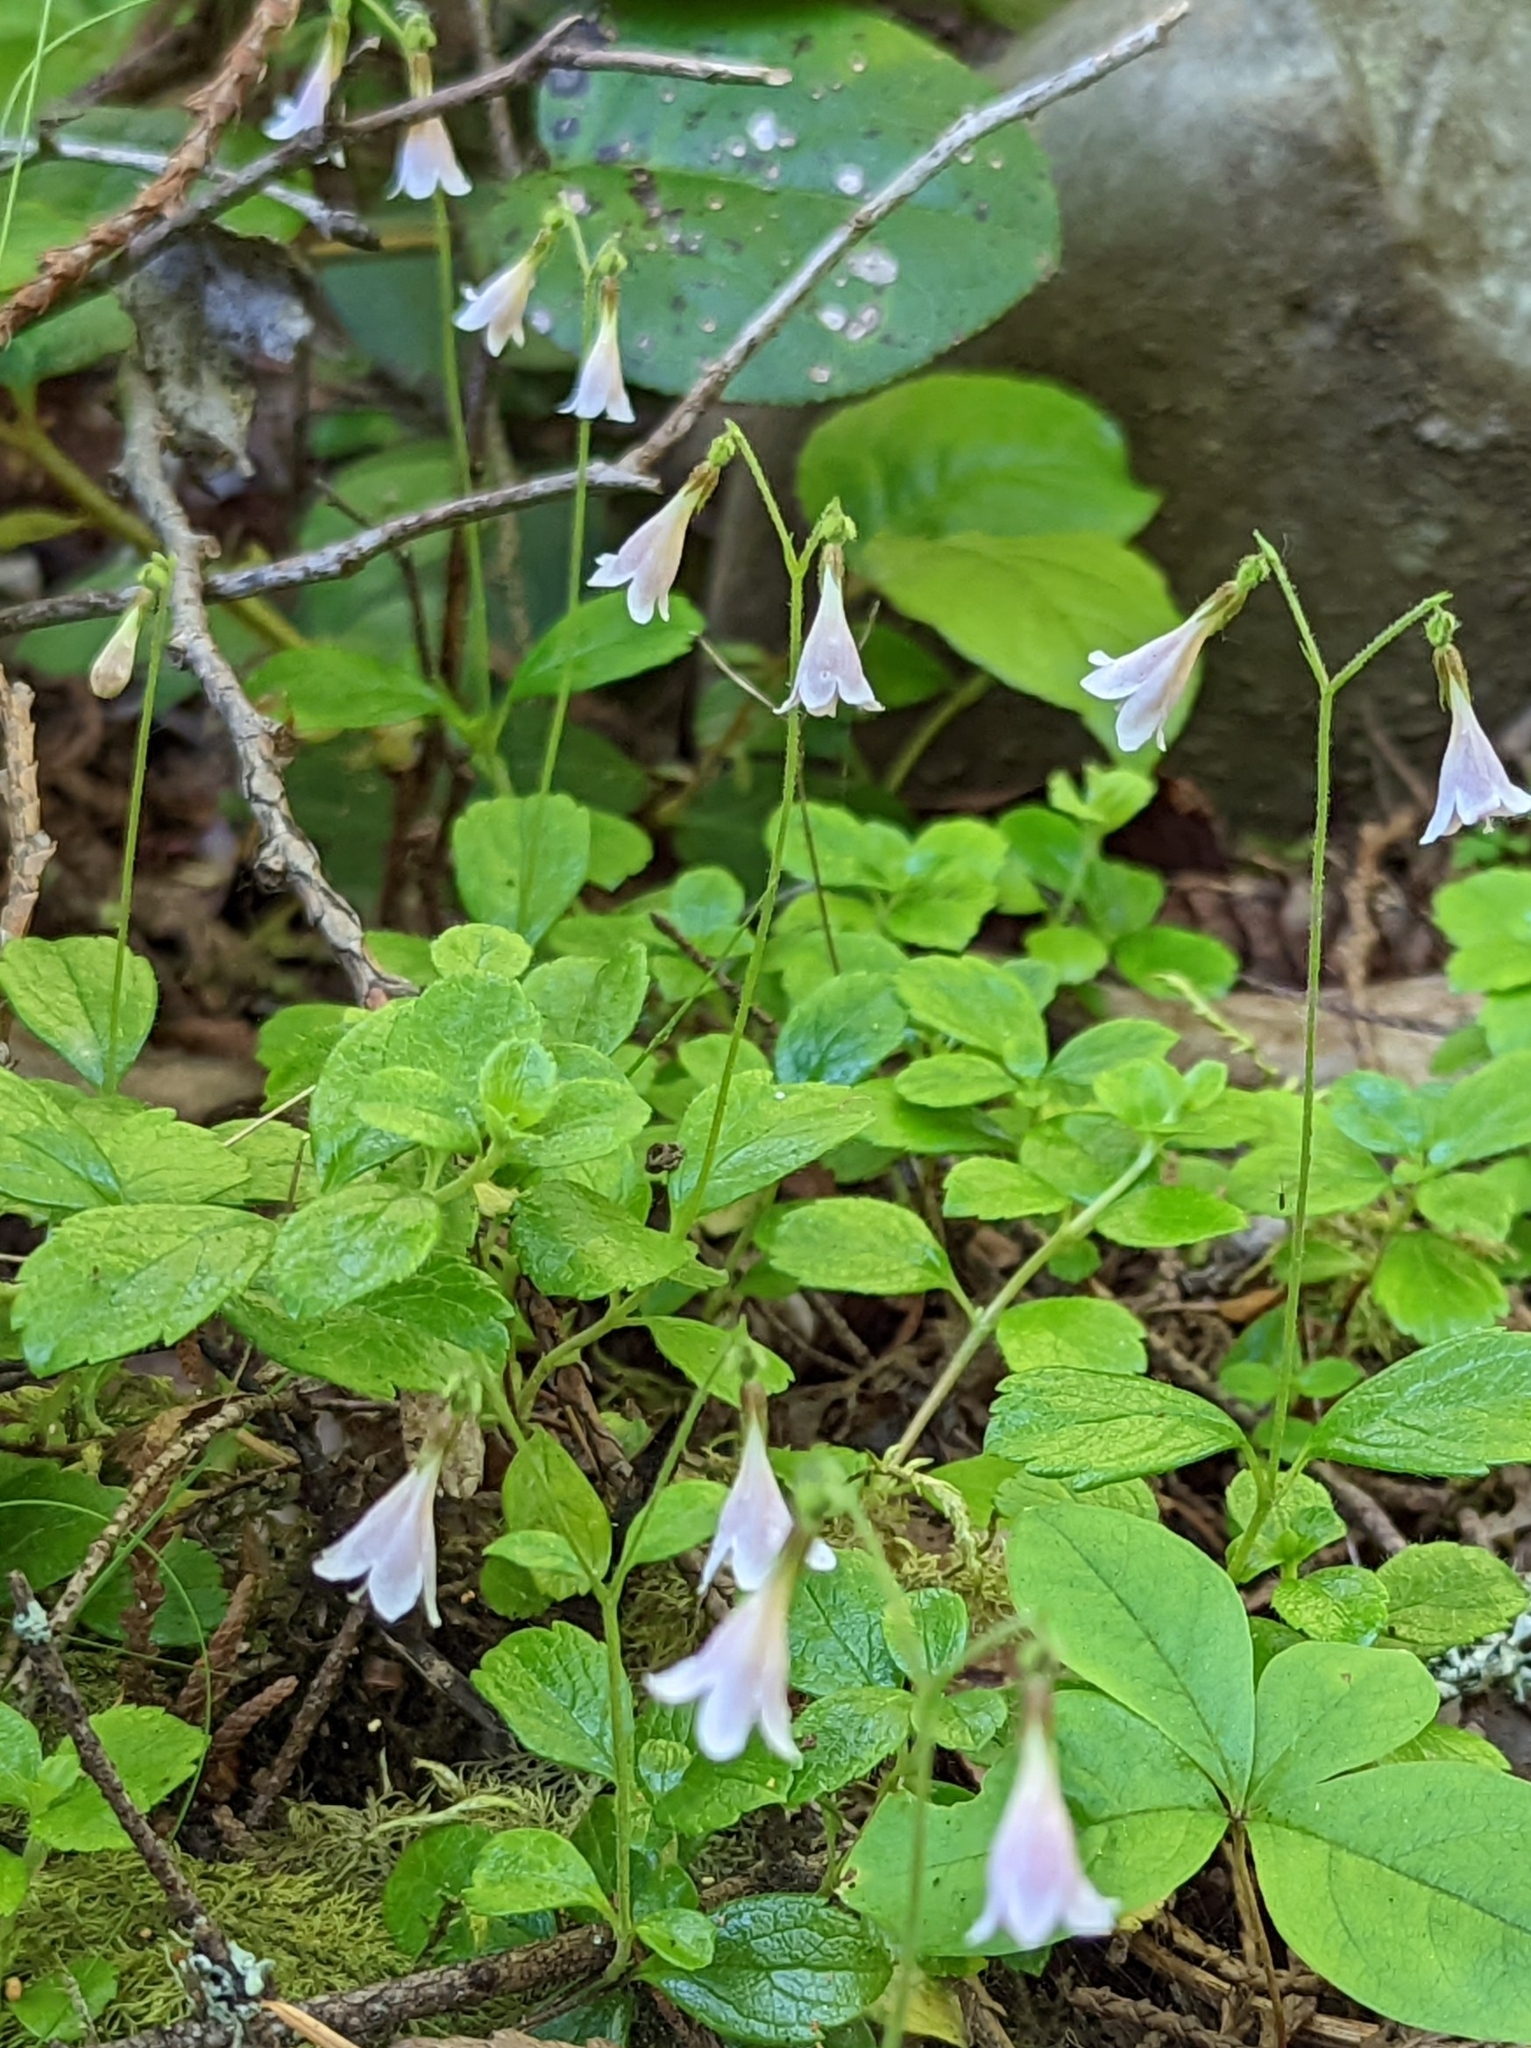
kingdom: Plantae
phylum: Tracheophyta
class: Magnoliopsida
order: Dipsacales
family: Caprifoliaceae
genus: Linnaea
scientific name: Linnaea borealis
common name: Twinflower
